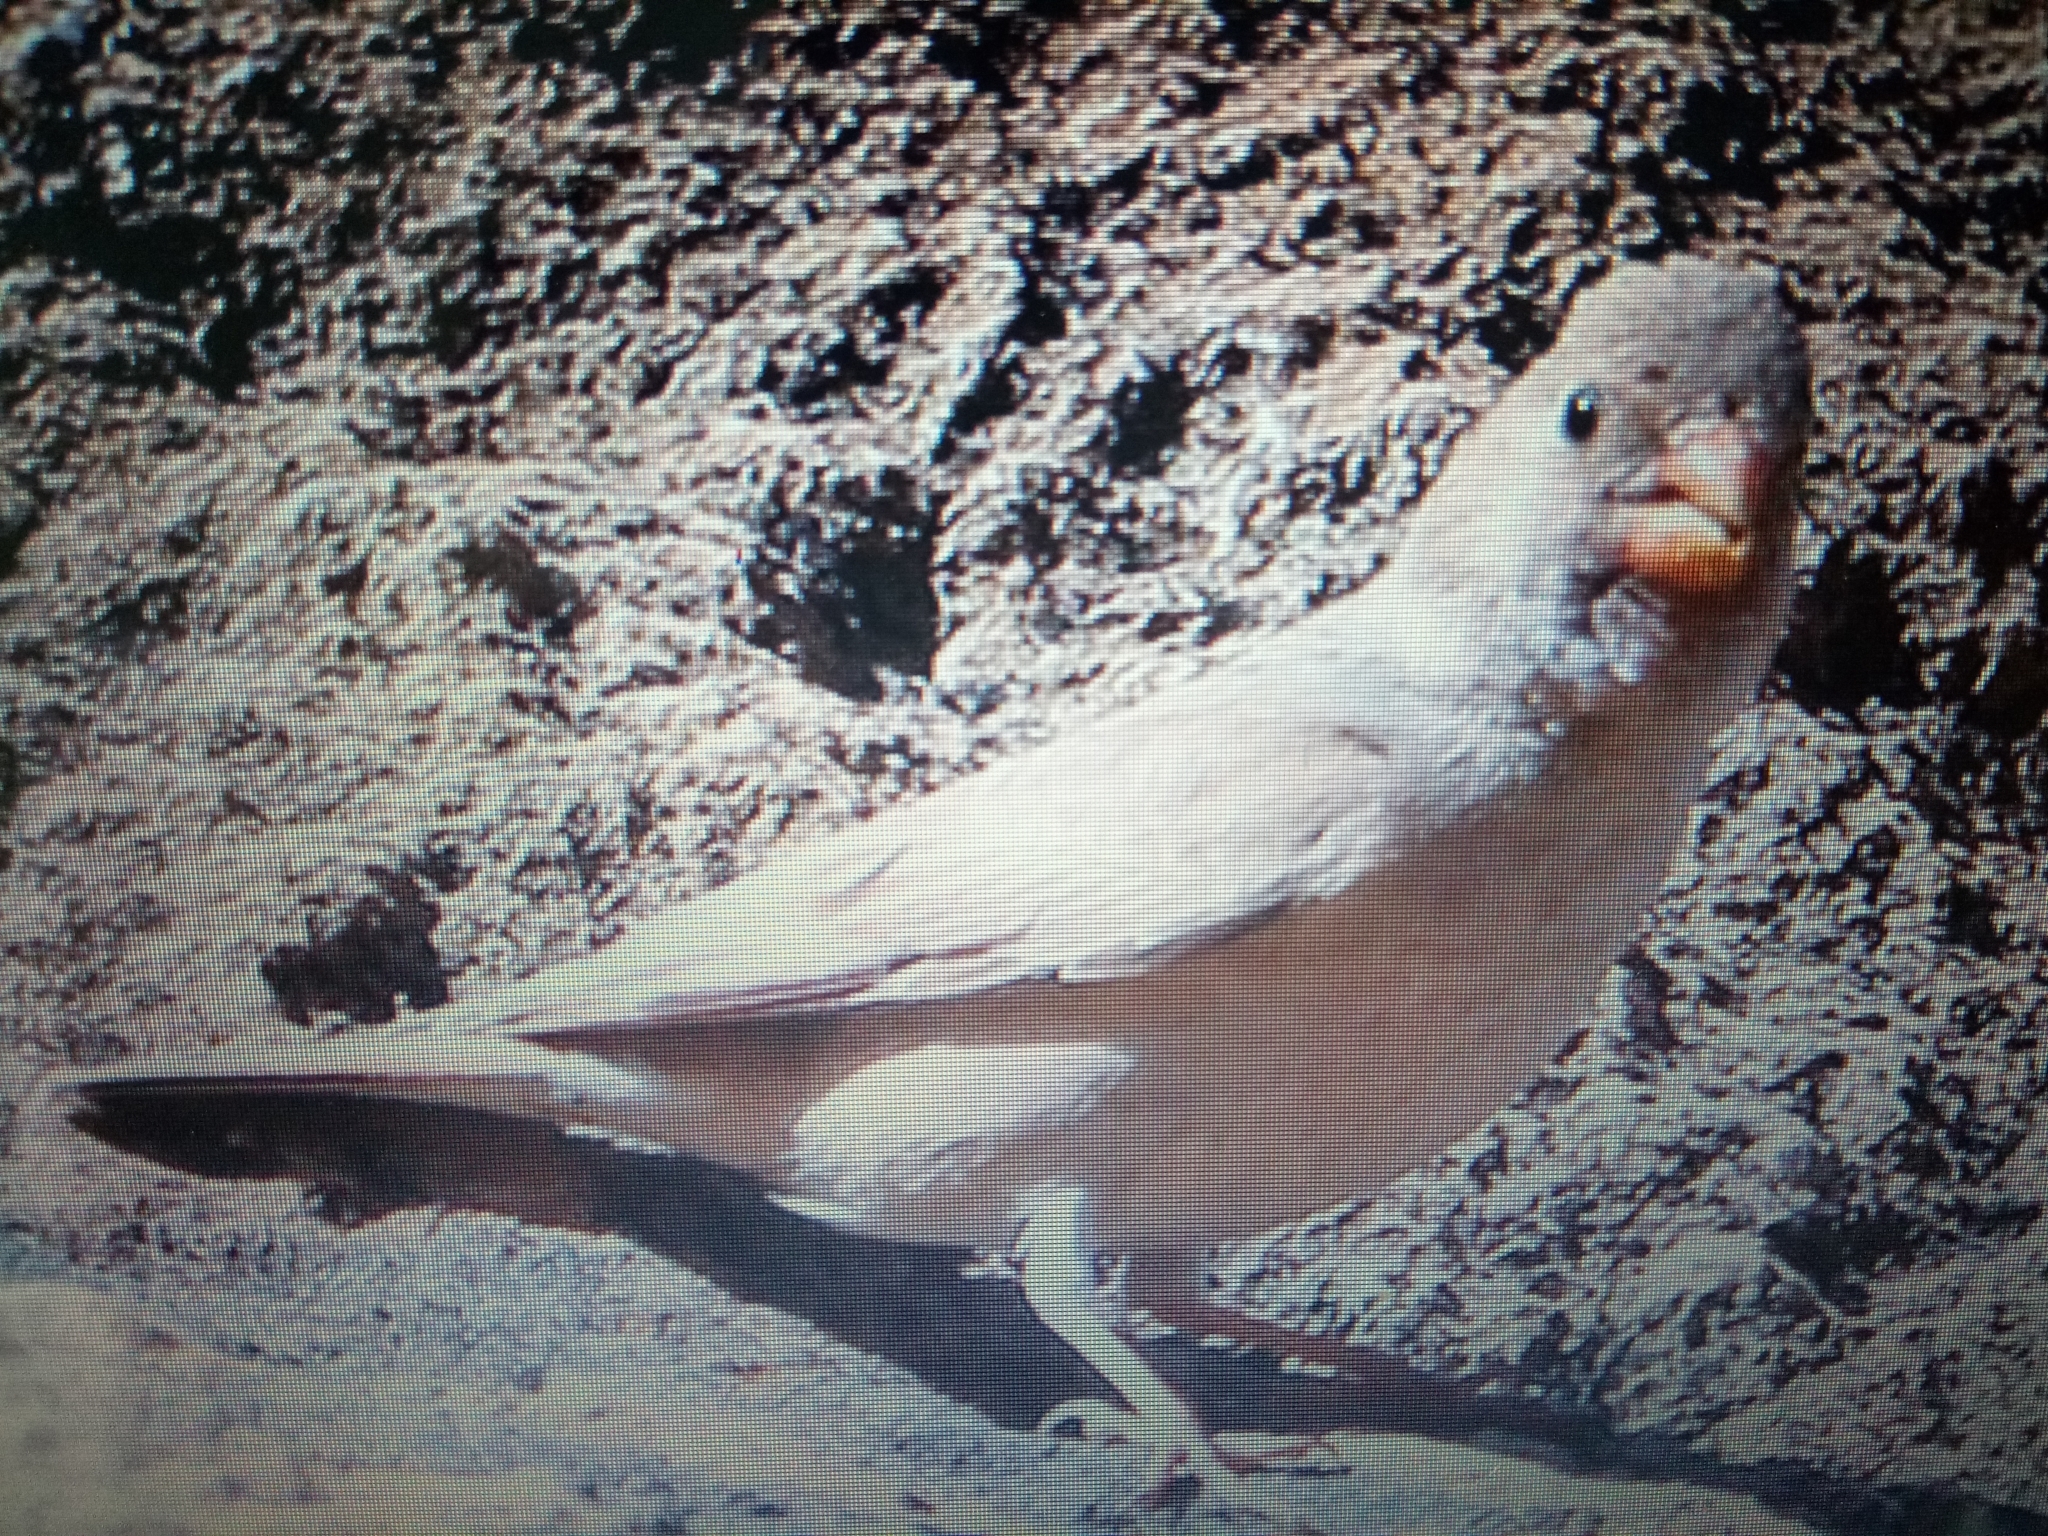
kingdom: Animalia
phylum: Chordata
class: Aves
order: Passeriformes
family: Fringillidae
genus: Bucanetes
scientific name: Bucanetes githagineus
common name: Trumpeter finch
